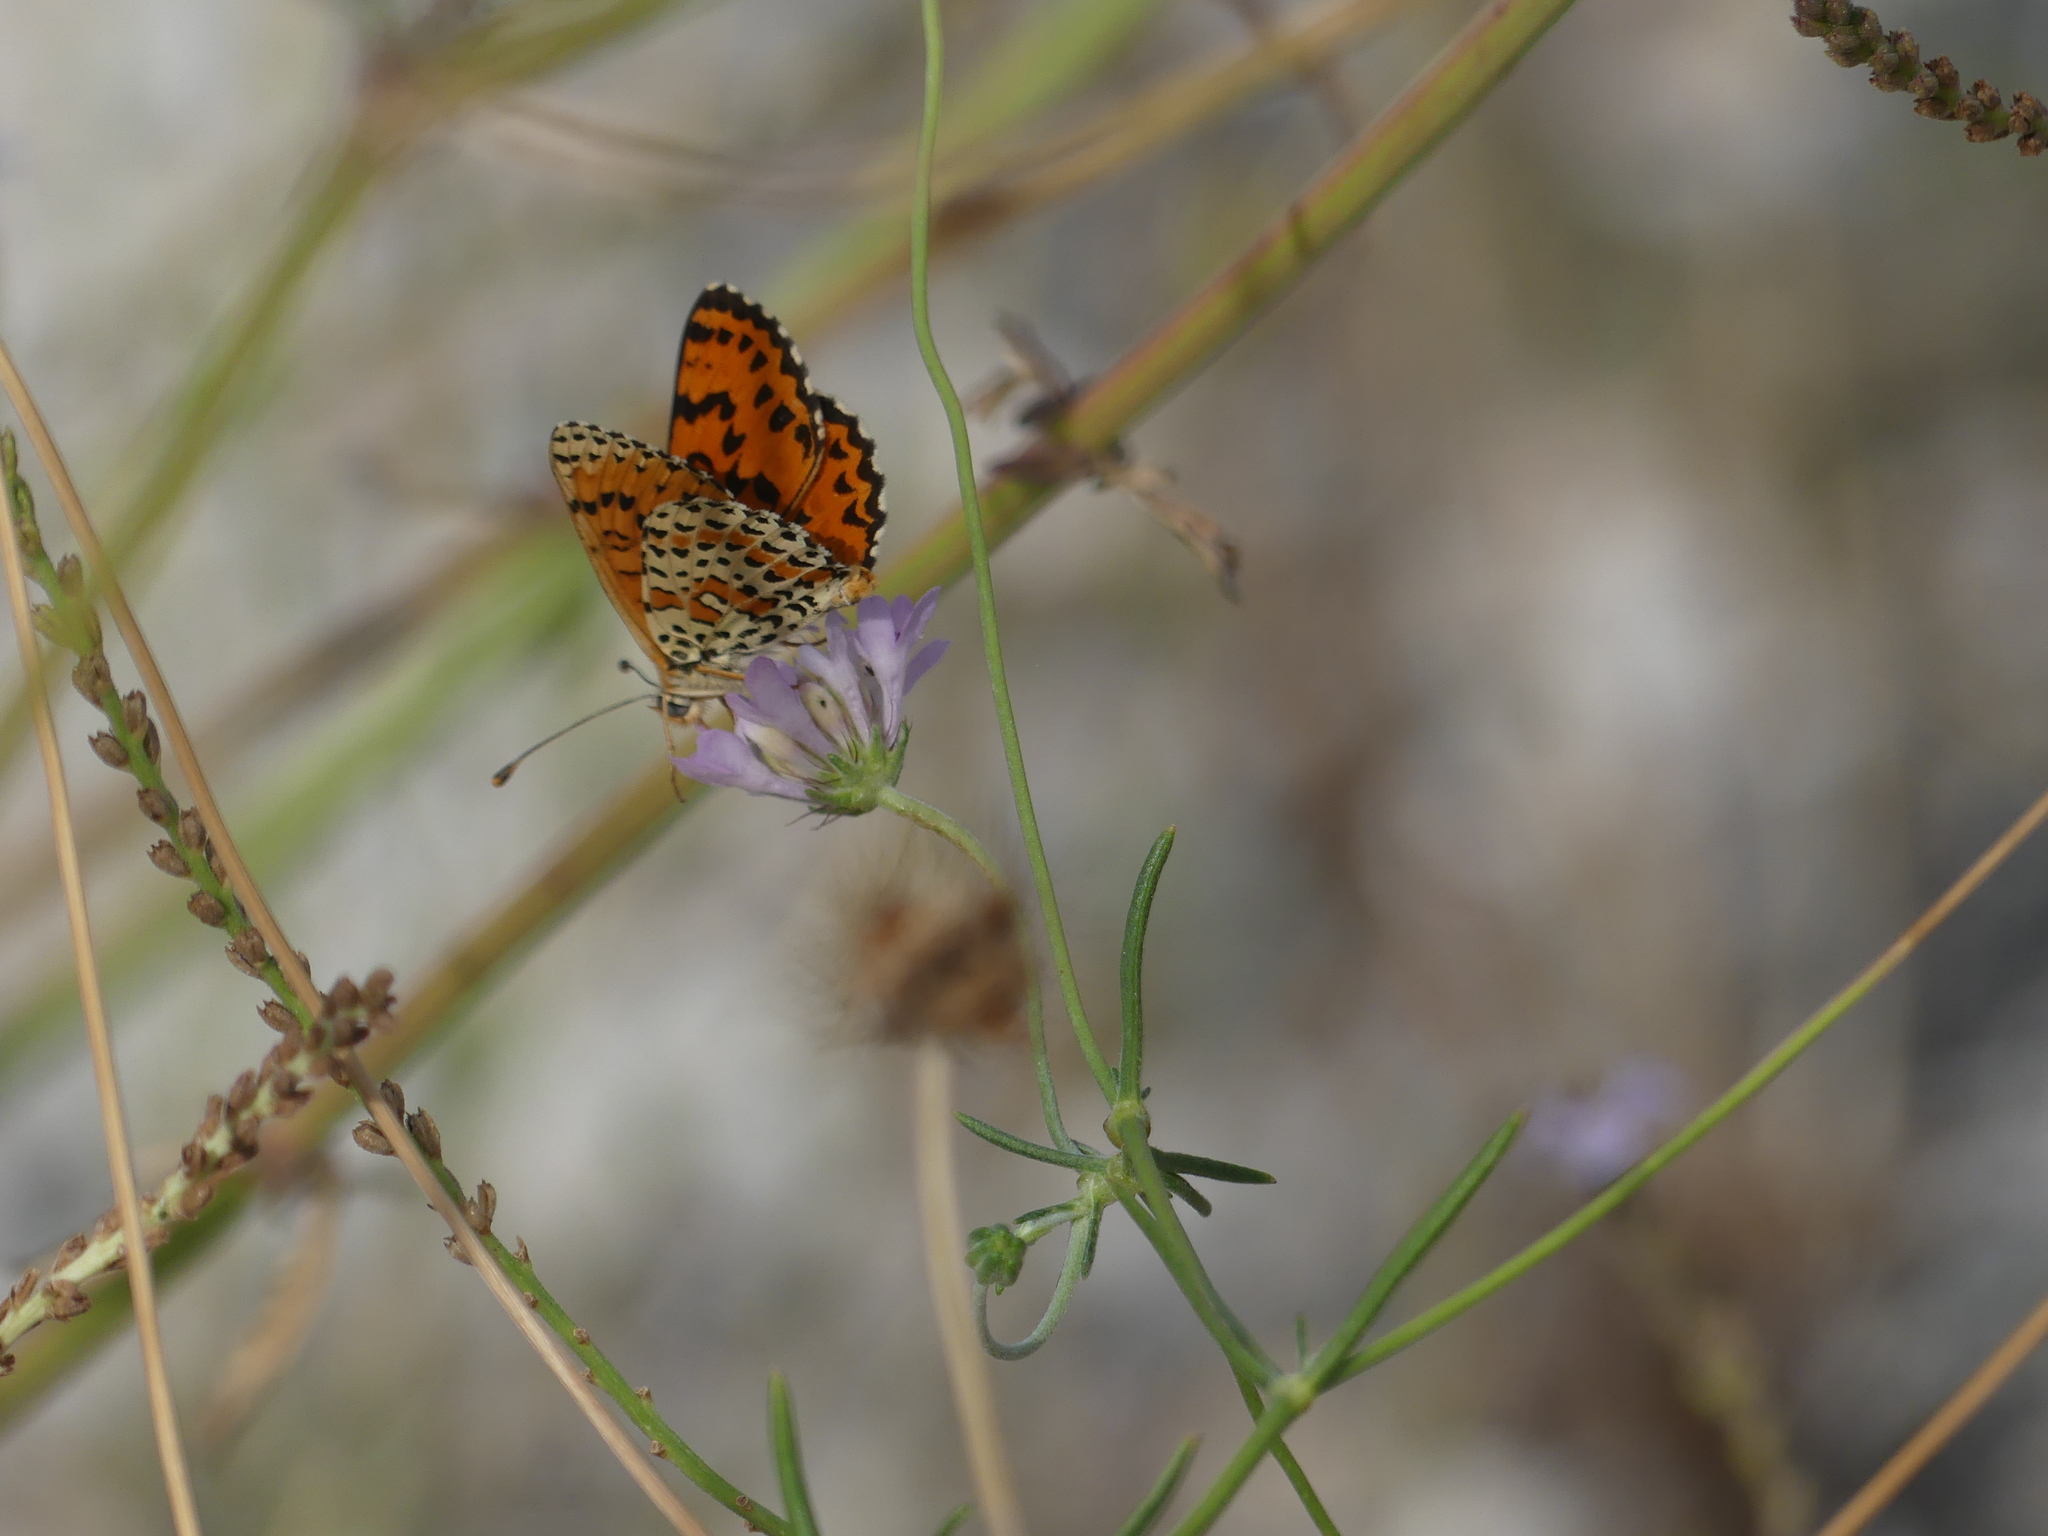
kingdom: Animalia
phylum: Arthropoda
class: Insecta
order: Lepidoptera
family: Nymphalidae
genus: Melitaea
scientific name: Melitaea didyma
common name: Spotted fritillary
